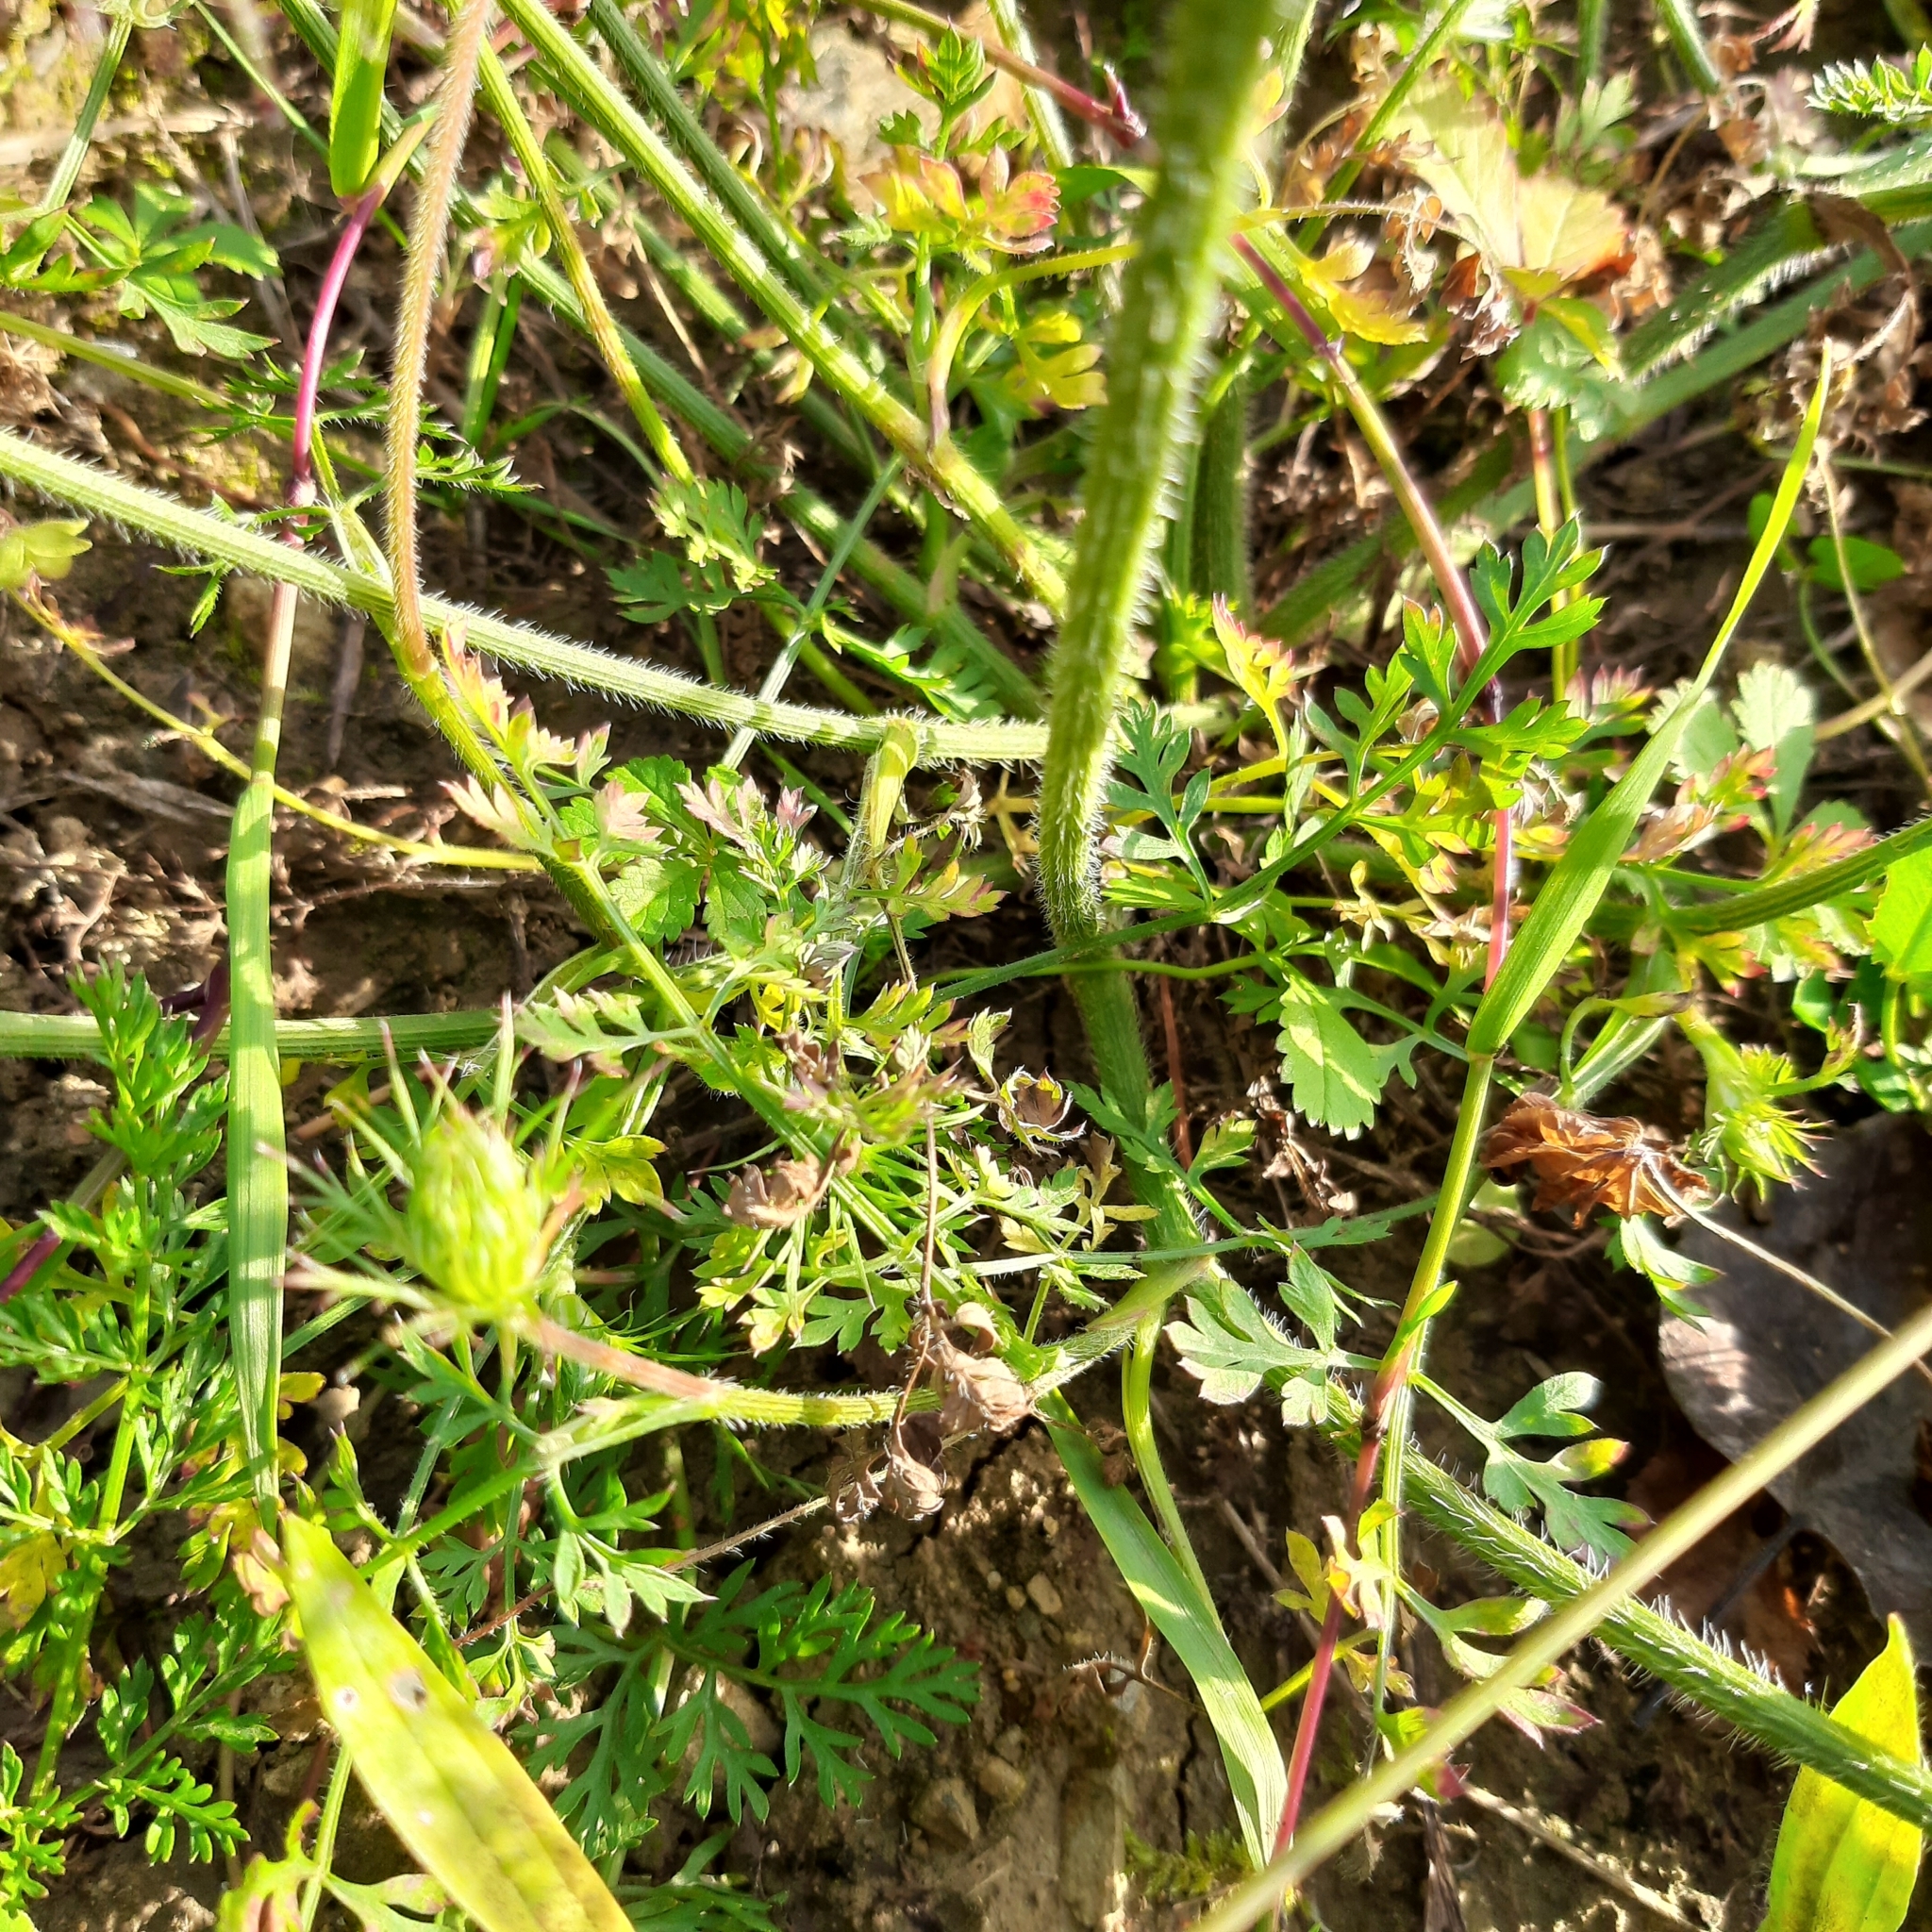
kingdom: Plantae
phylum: Tracheophyta
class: Magnoliopsida
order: Apiales
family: Apiaceae
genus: Daucus
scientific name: Daucus carota
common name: Wild carrot
